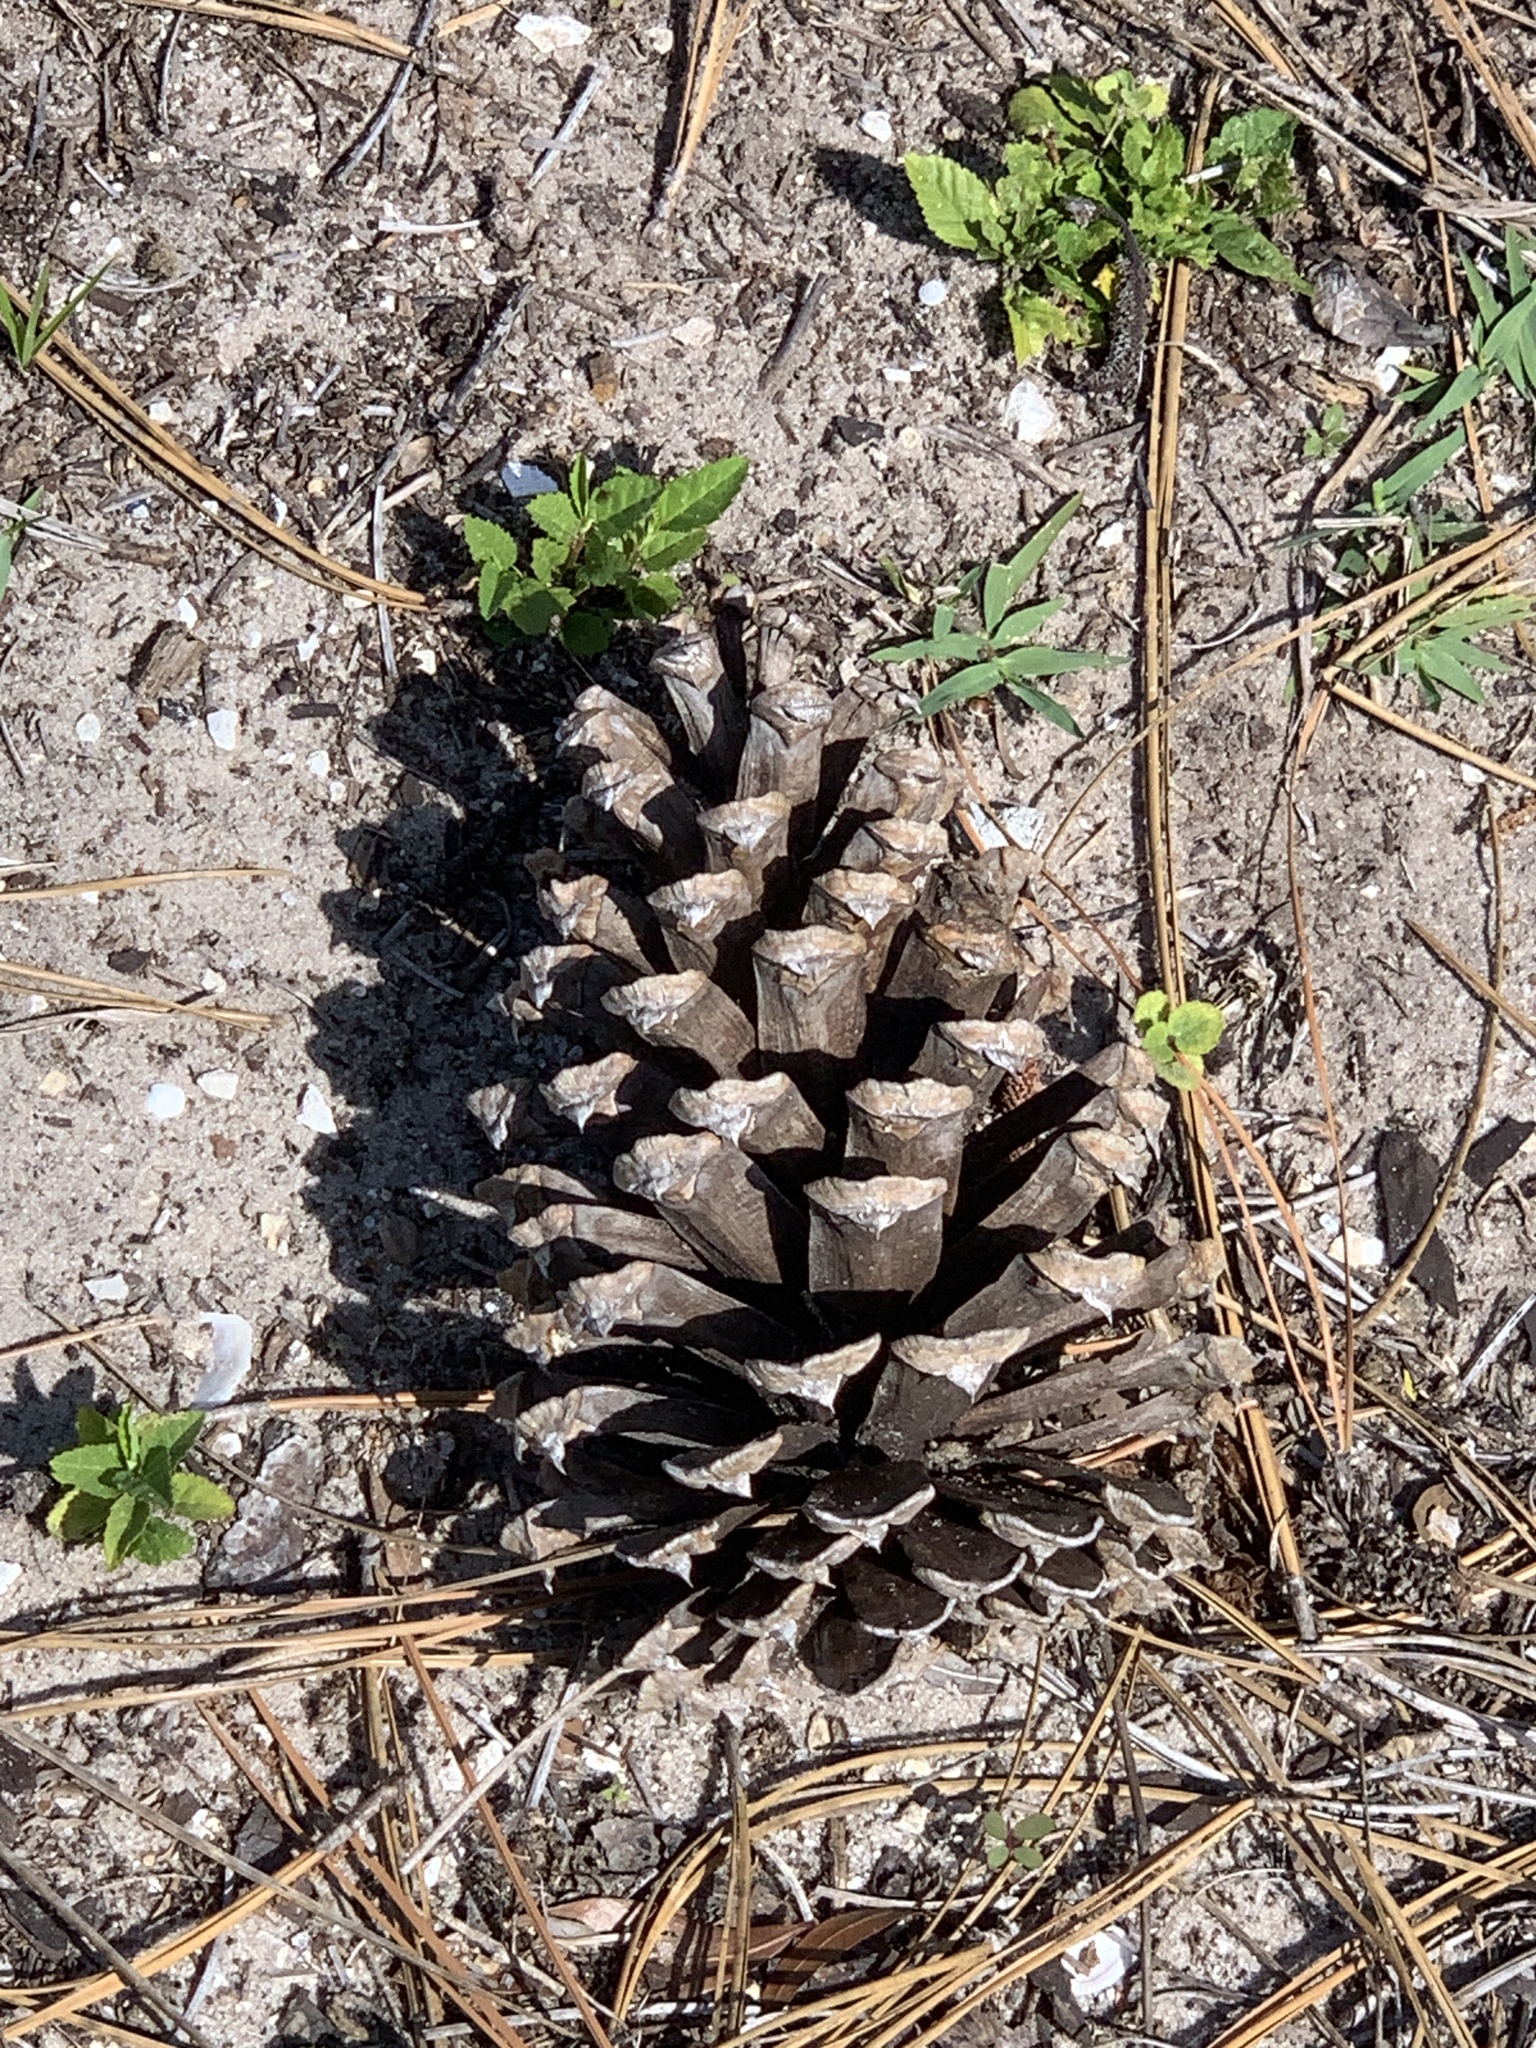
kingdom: Plantae
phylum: Tracheophyta
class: Pinopsida
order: Pinales
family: Pinaceae
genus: Pinus
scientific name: Pinus palustris
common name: Longleaf pine
